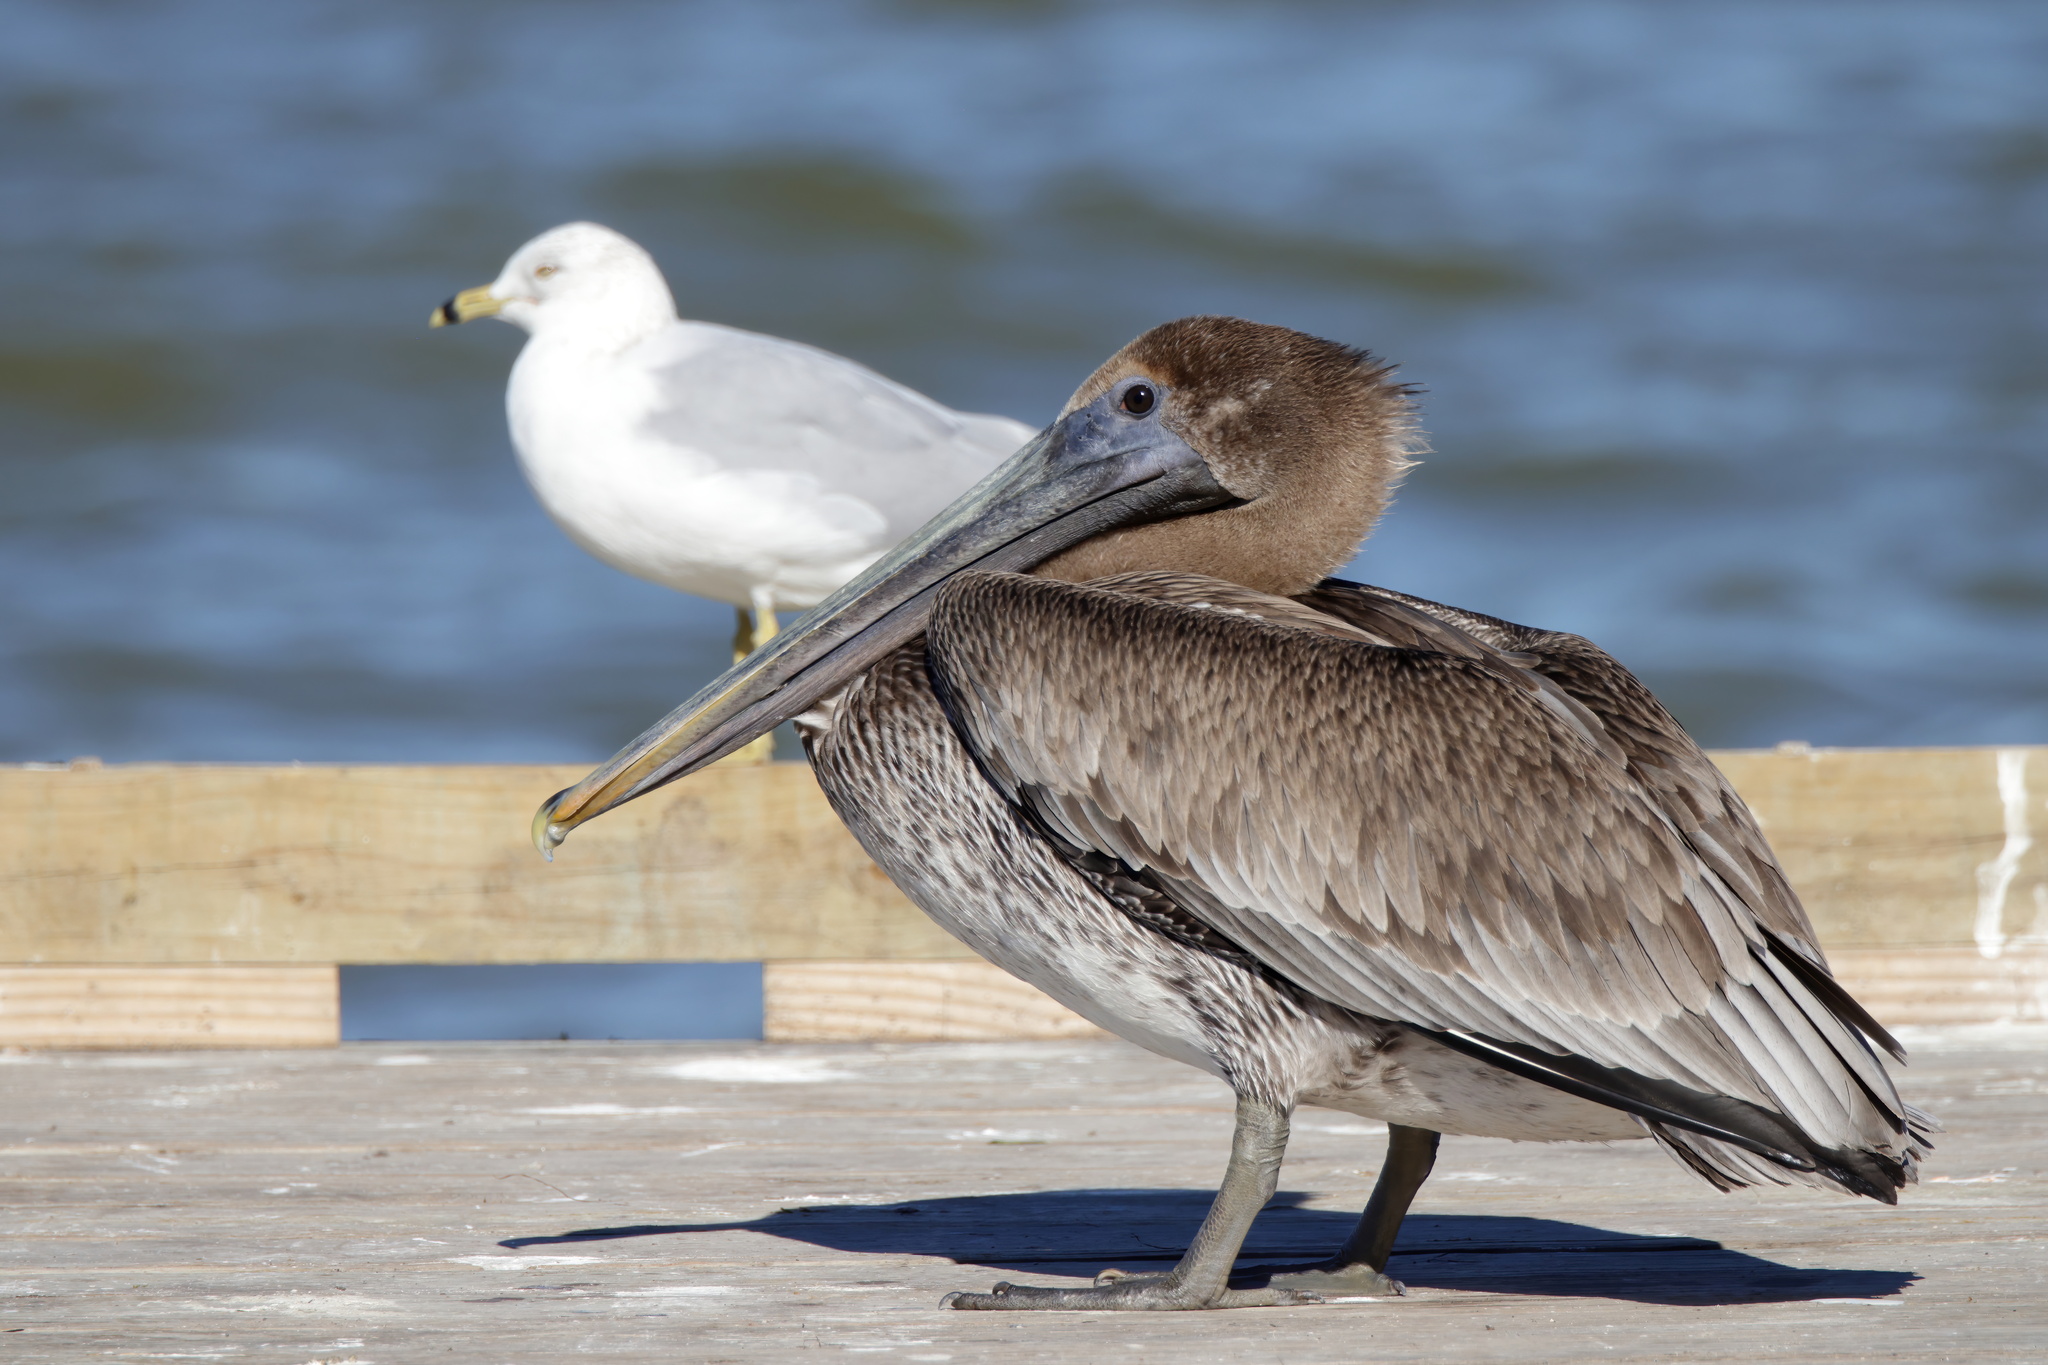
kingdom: Animalia
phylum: Chordata
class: Aves
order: Pelecaniformes
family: Pelecanidae
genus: Pelecanus
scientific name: Pelecanus occidentalis
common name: Brown pelican
